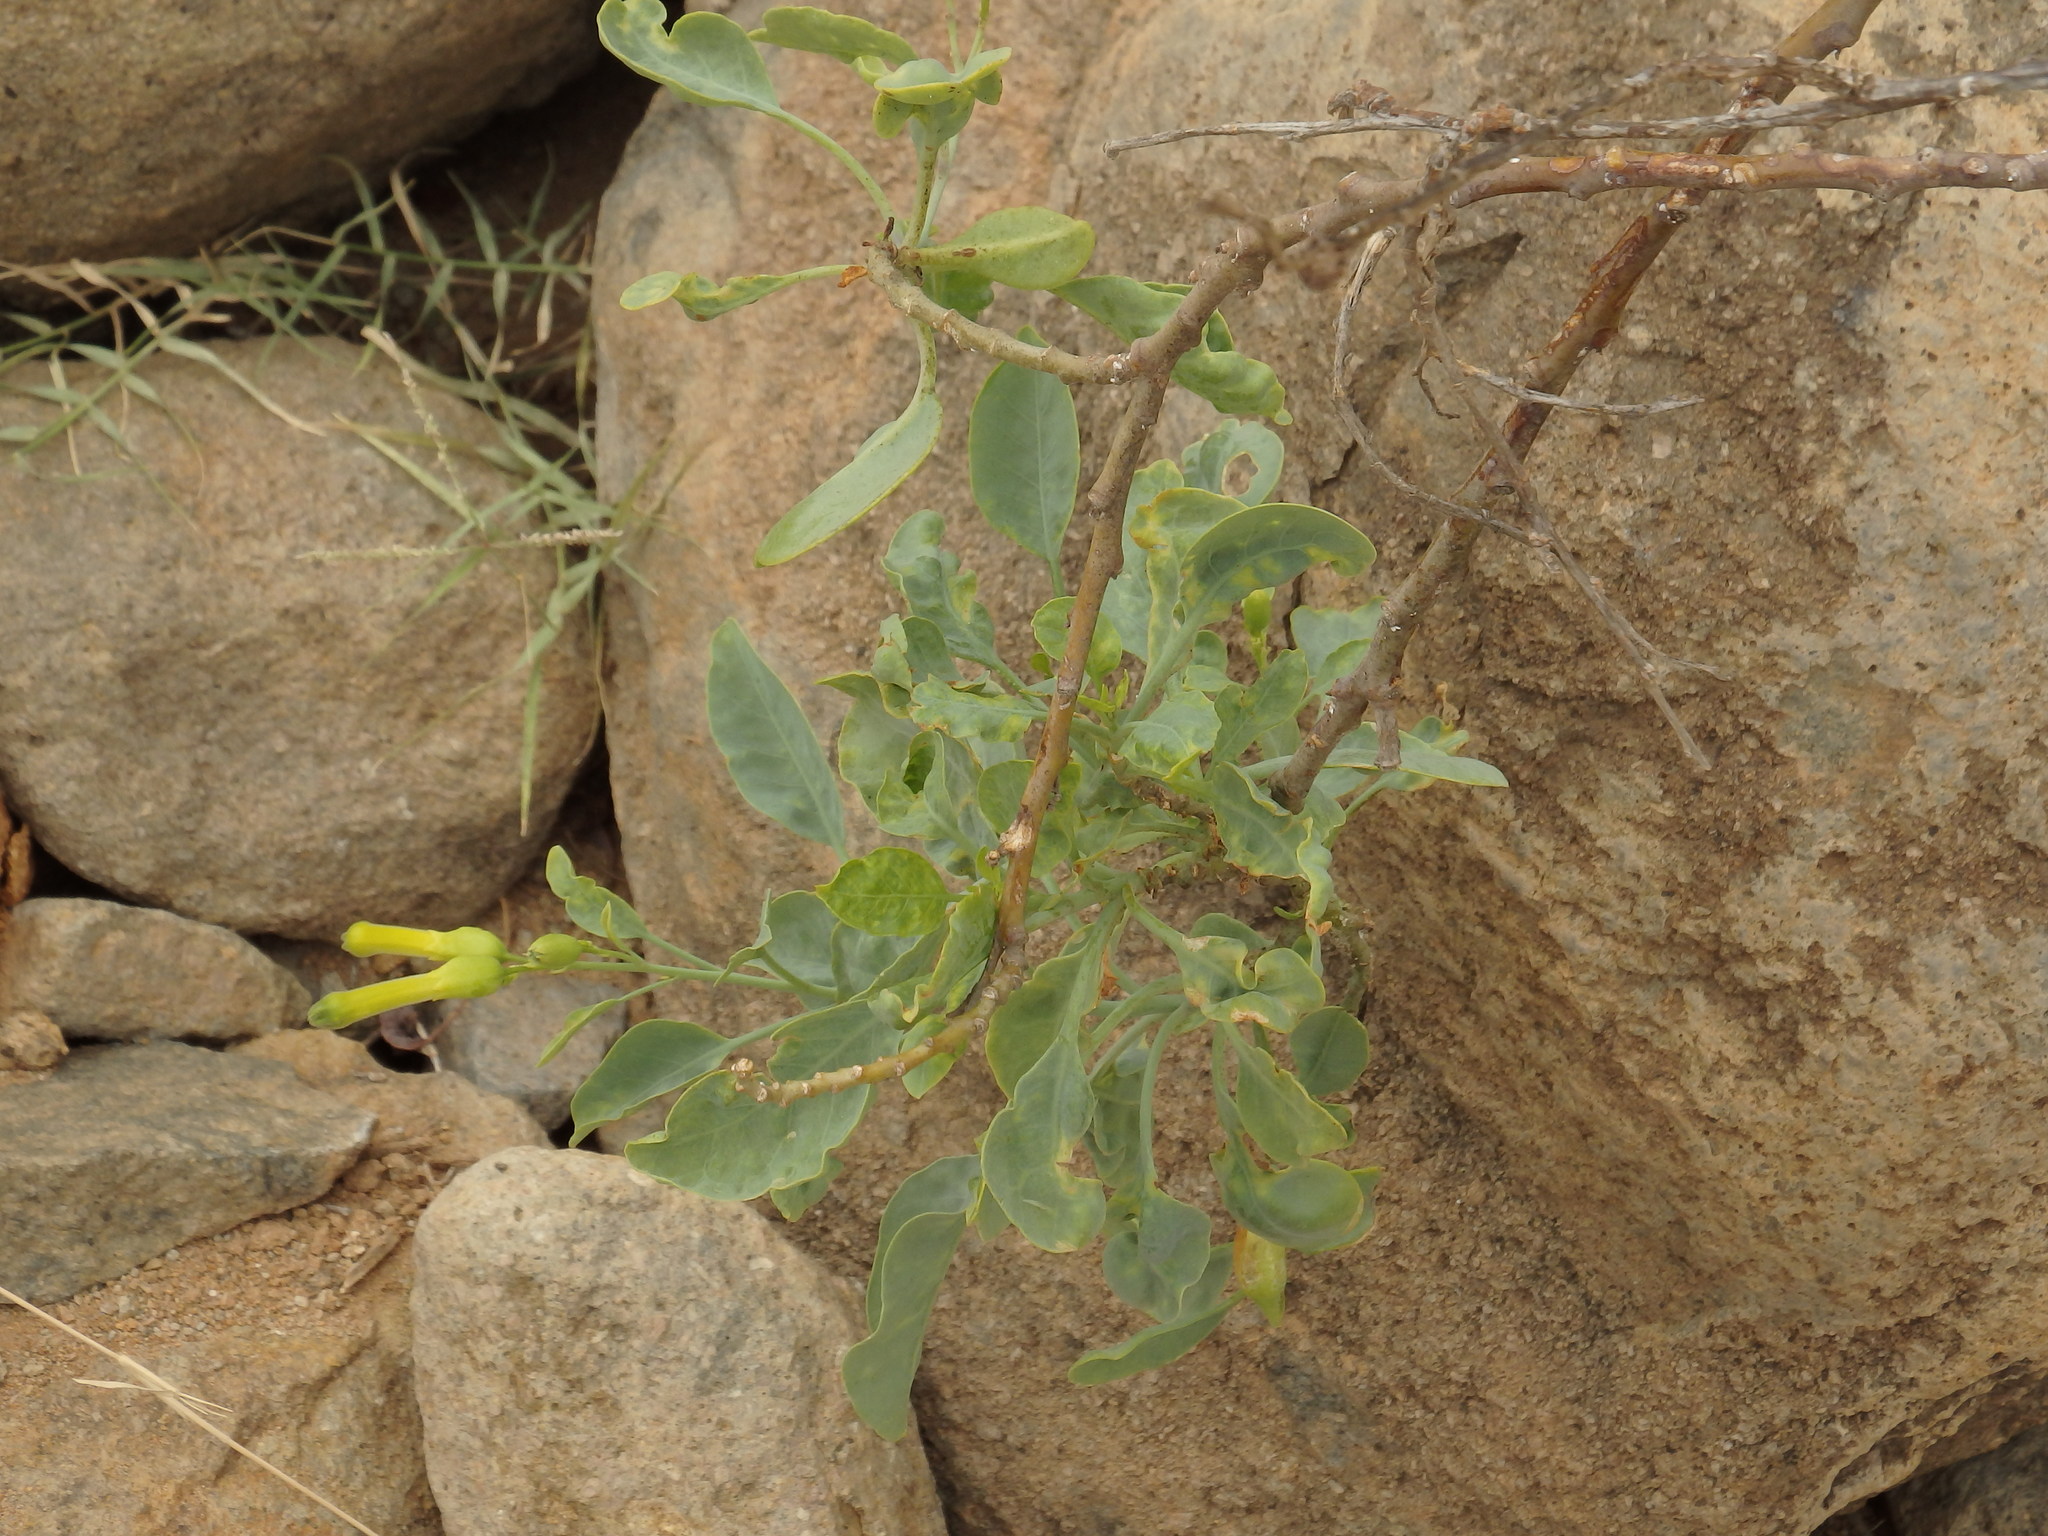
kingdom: Plantae
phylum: Tracheophyta
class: Magnoliopsida
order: Solanales
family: Solanaceae
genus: Nicotiana
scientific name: Nicotiana glauca
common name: Tree tobacco
